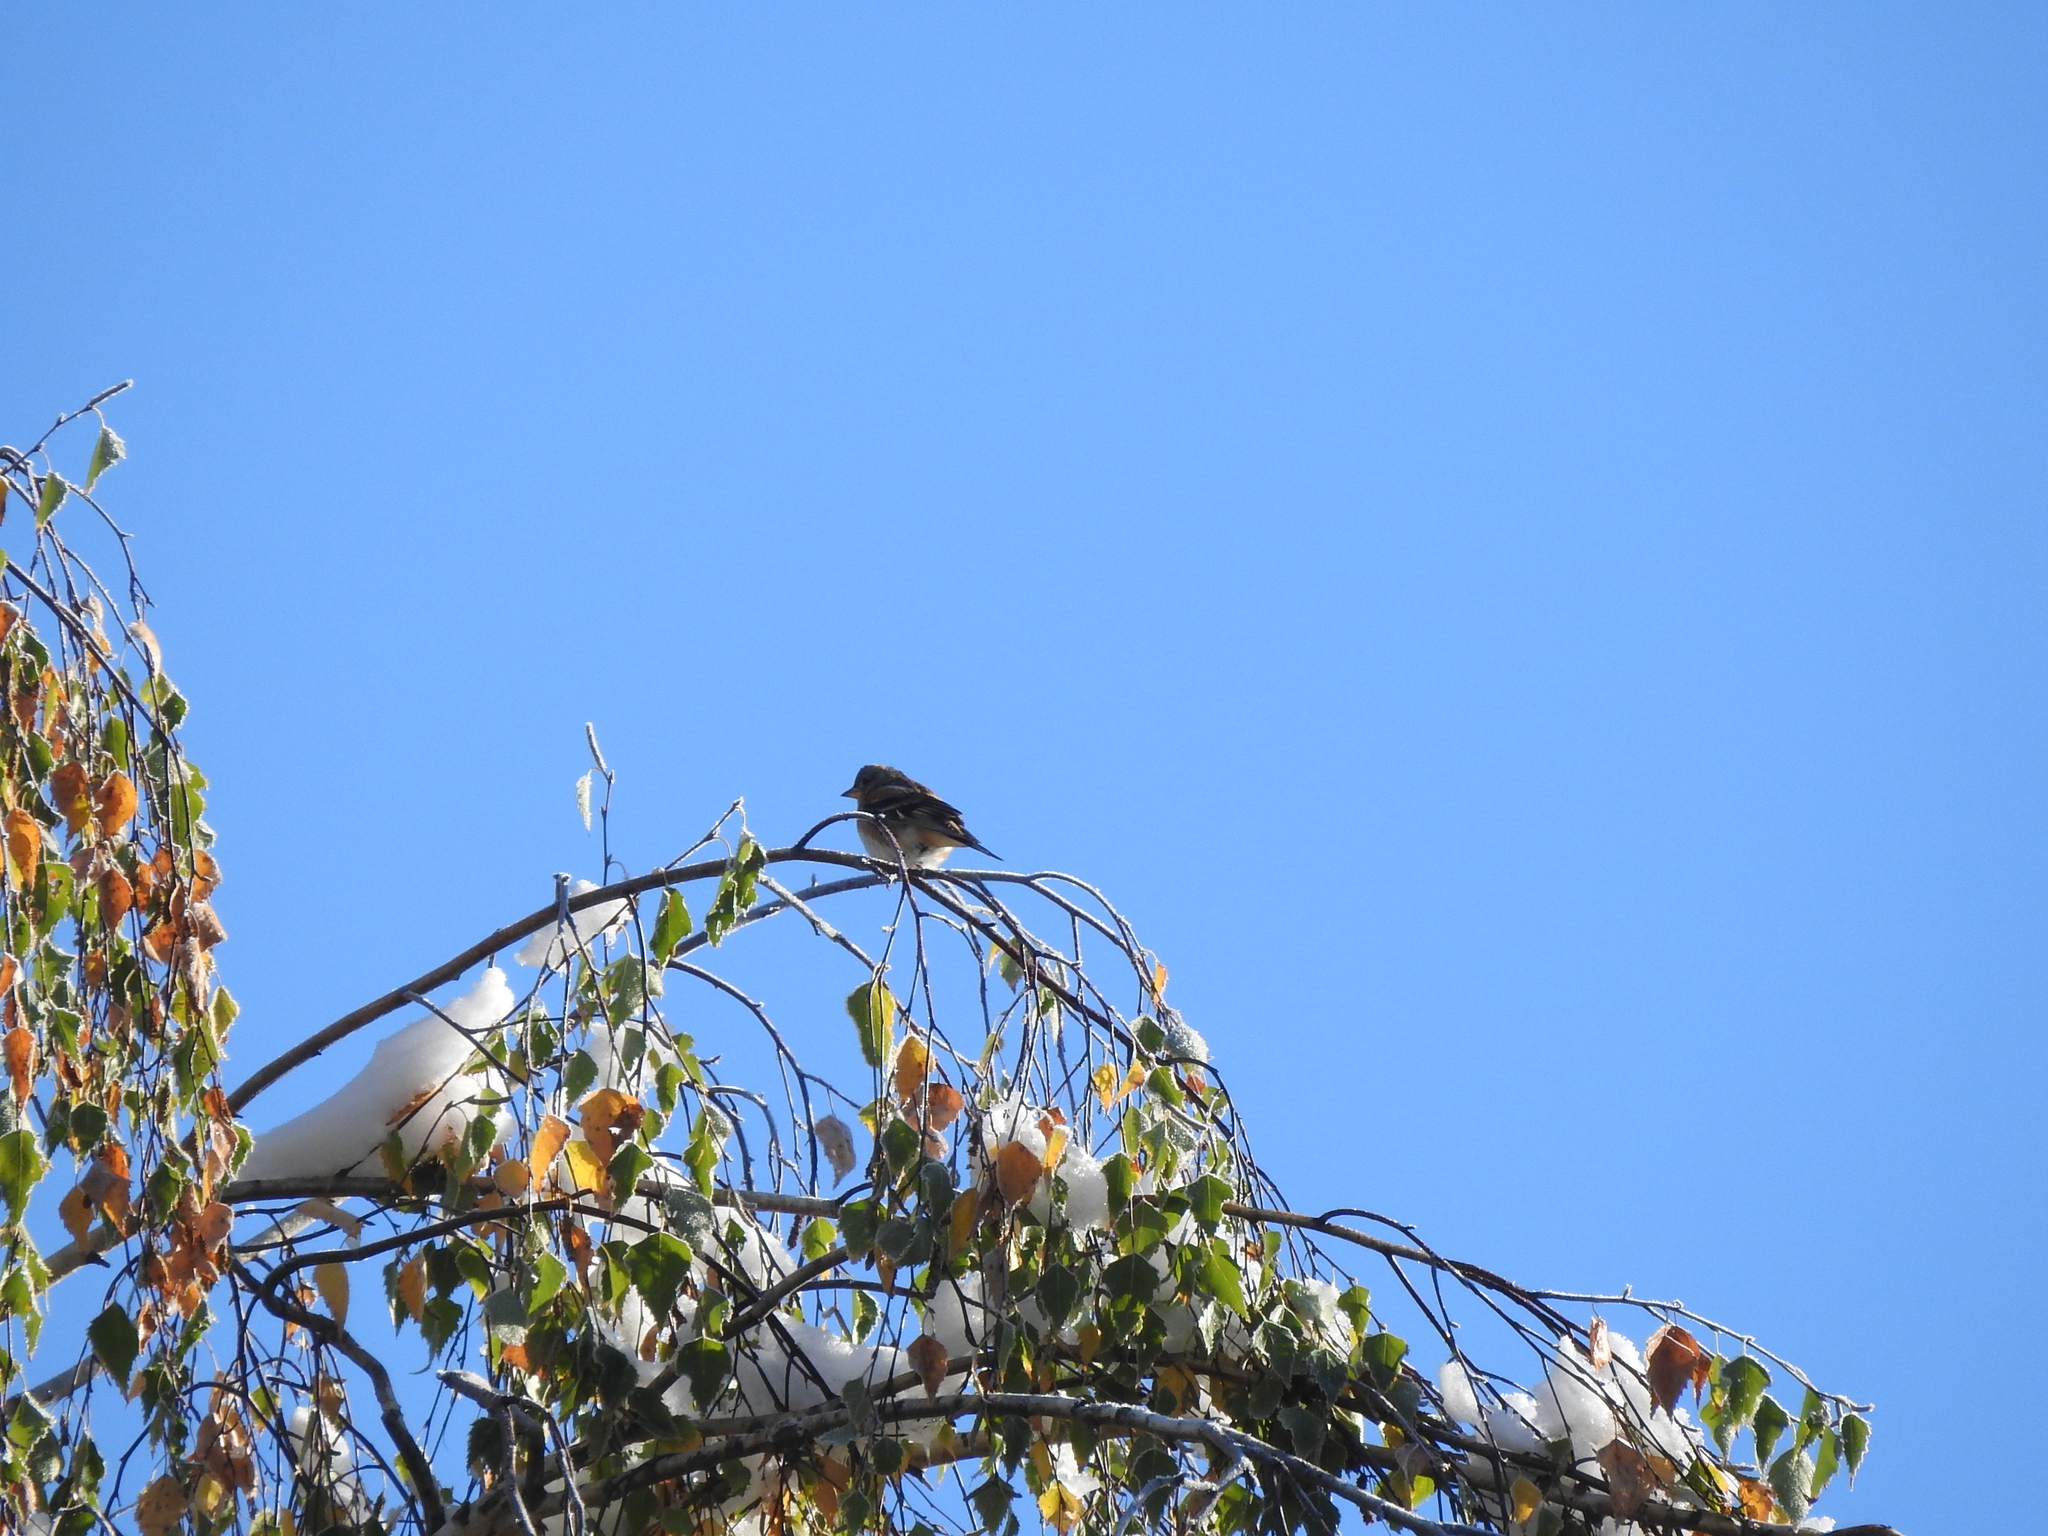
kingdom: Animalia
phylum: Chordata
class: Aves
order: Passeriformes
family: Fringillidae
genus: Fringilla
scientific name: Fringilla montifringilla
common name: Brambling
